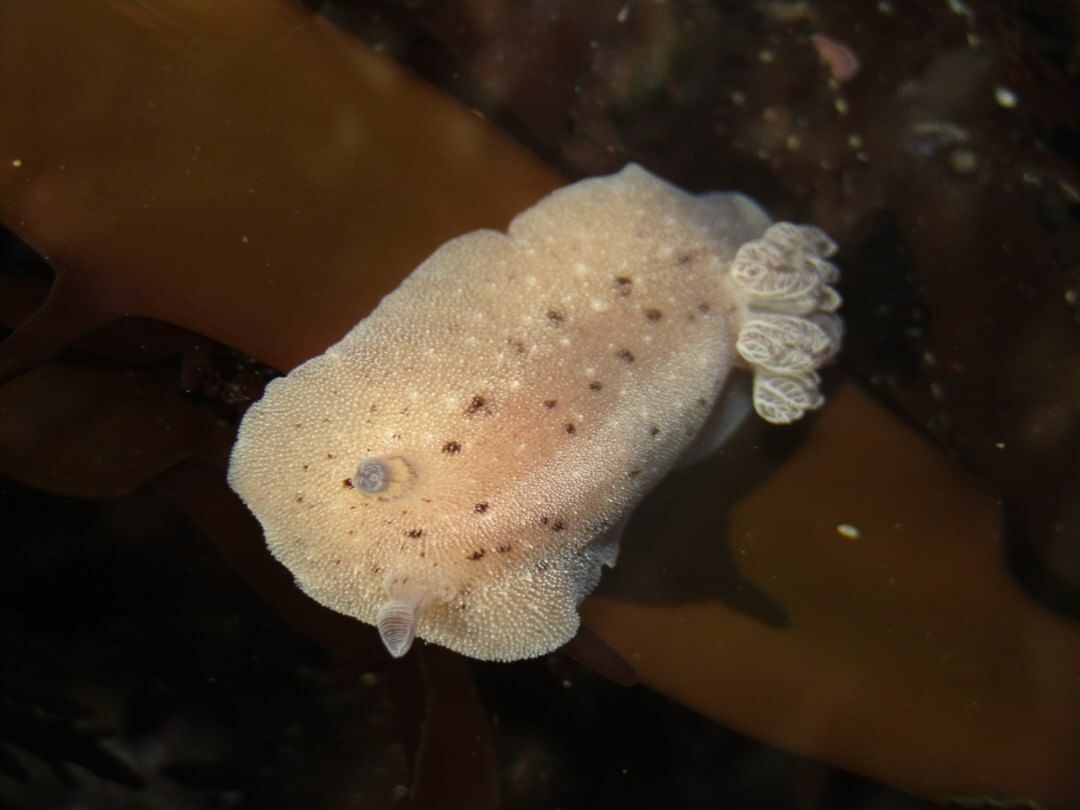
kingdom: Animalia
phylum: Mollusca
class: Gastropoda
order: Nudibranchia
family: Discodorididae
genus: Alloiodoris
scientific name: Alloiodoris lanuginata
